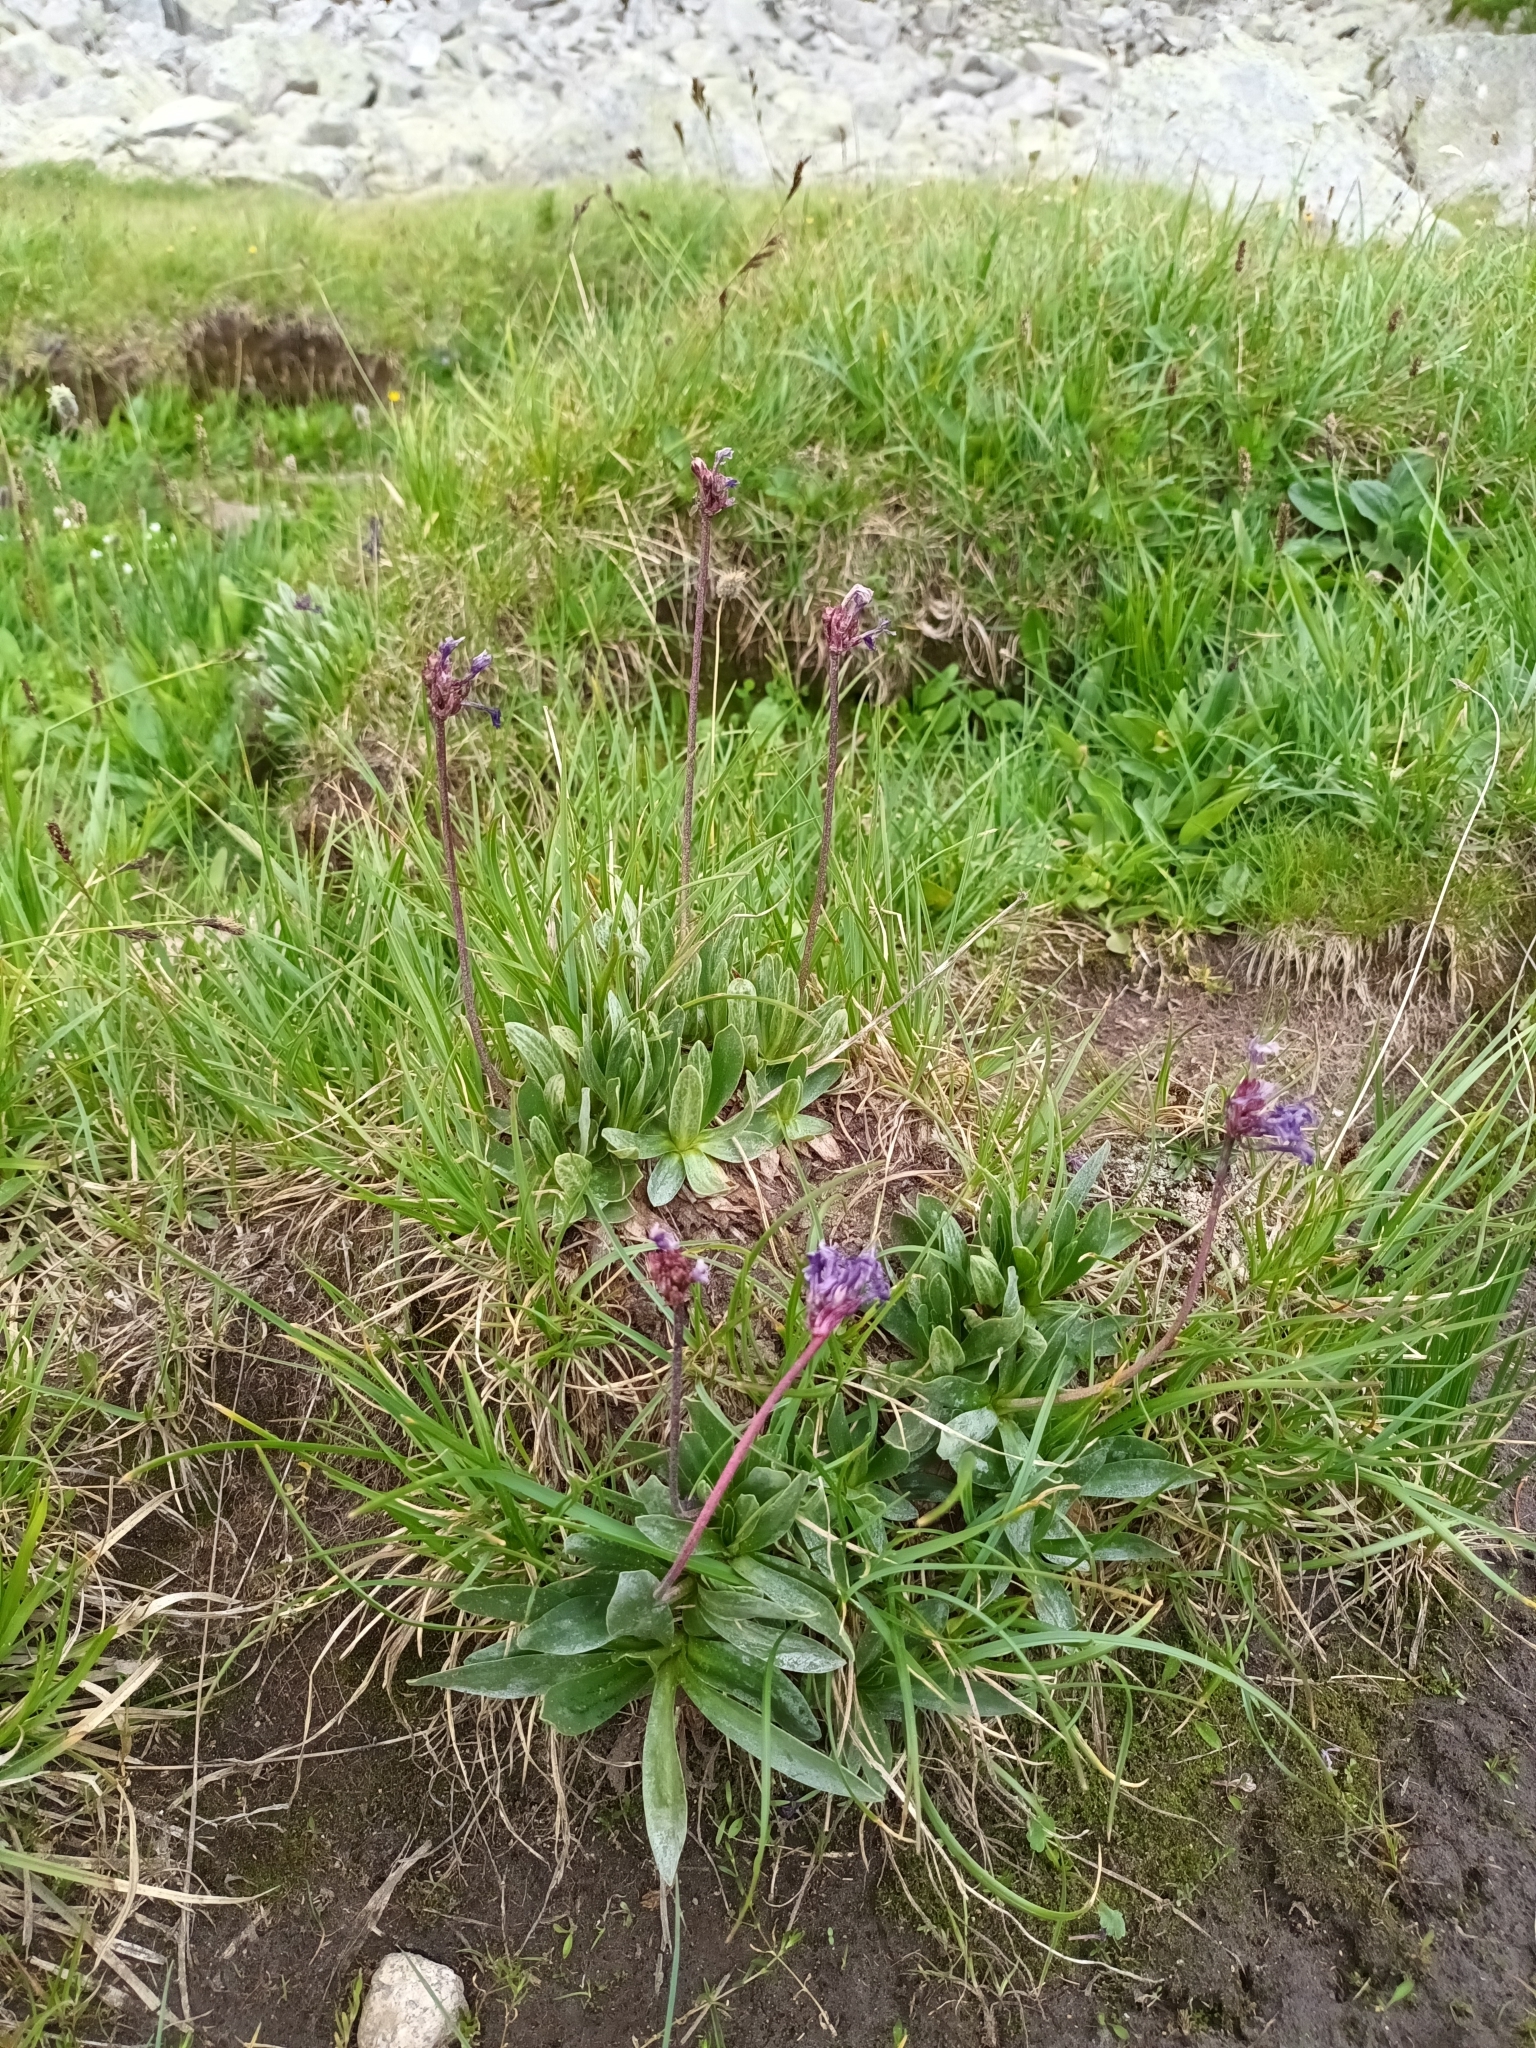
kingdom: Plantae
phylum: Tracheophyta
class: Magnoliopsida
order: Ericales
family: Primulaceae
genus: Primula
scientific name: Primula deorum
